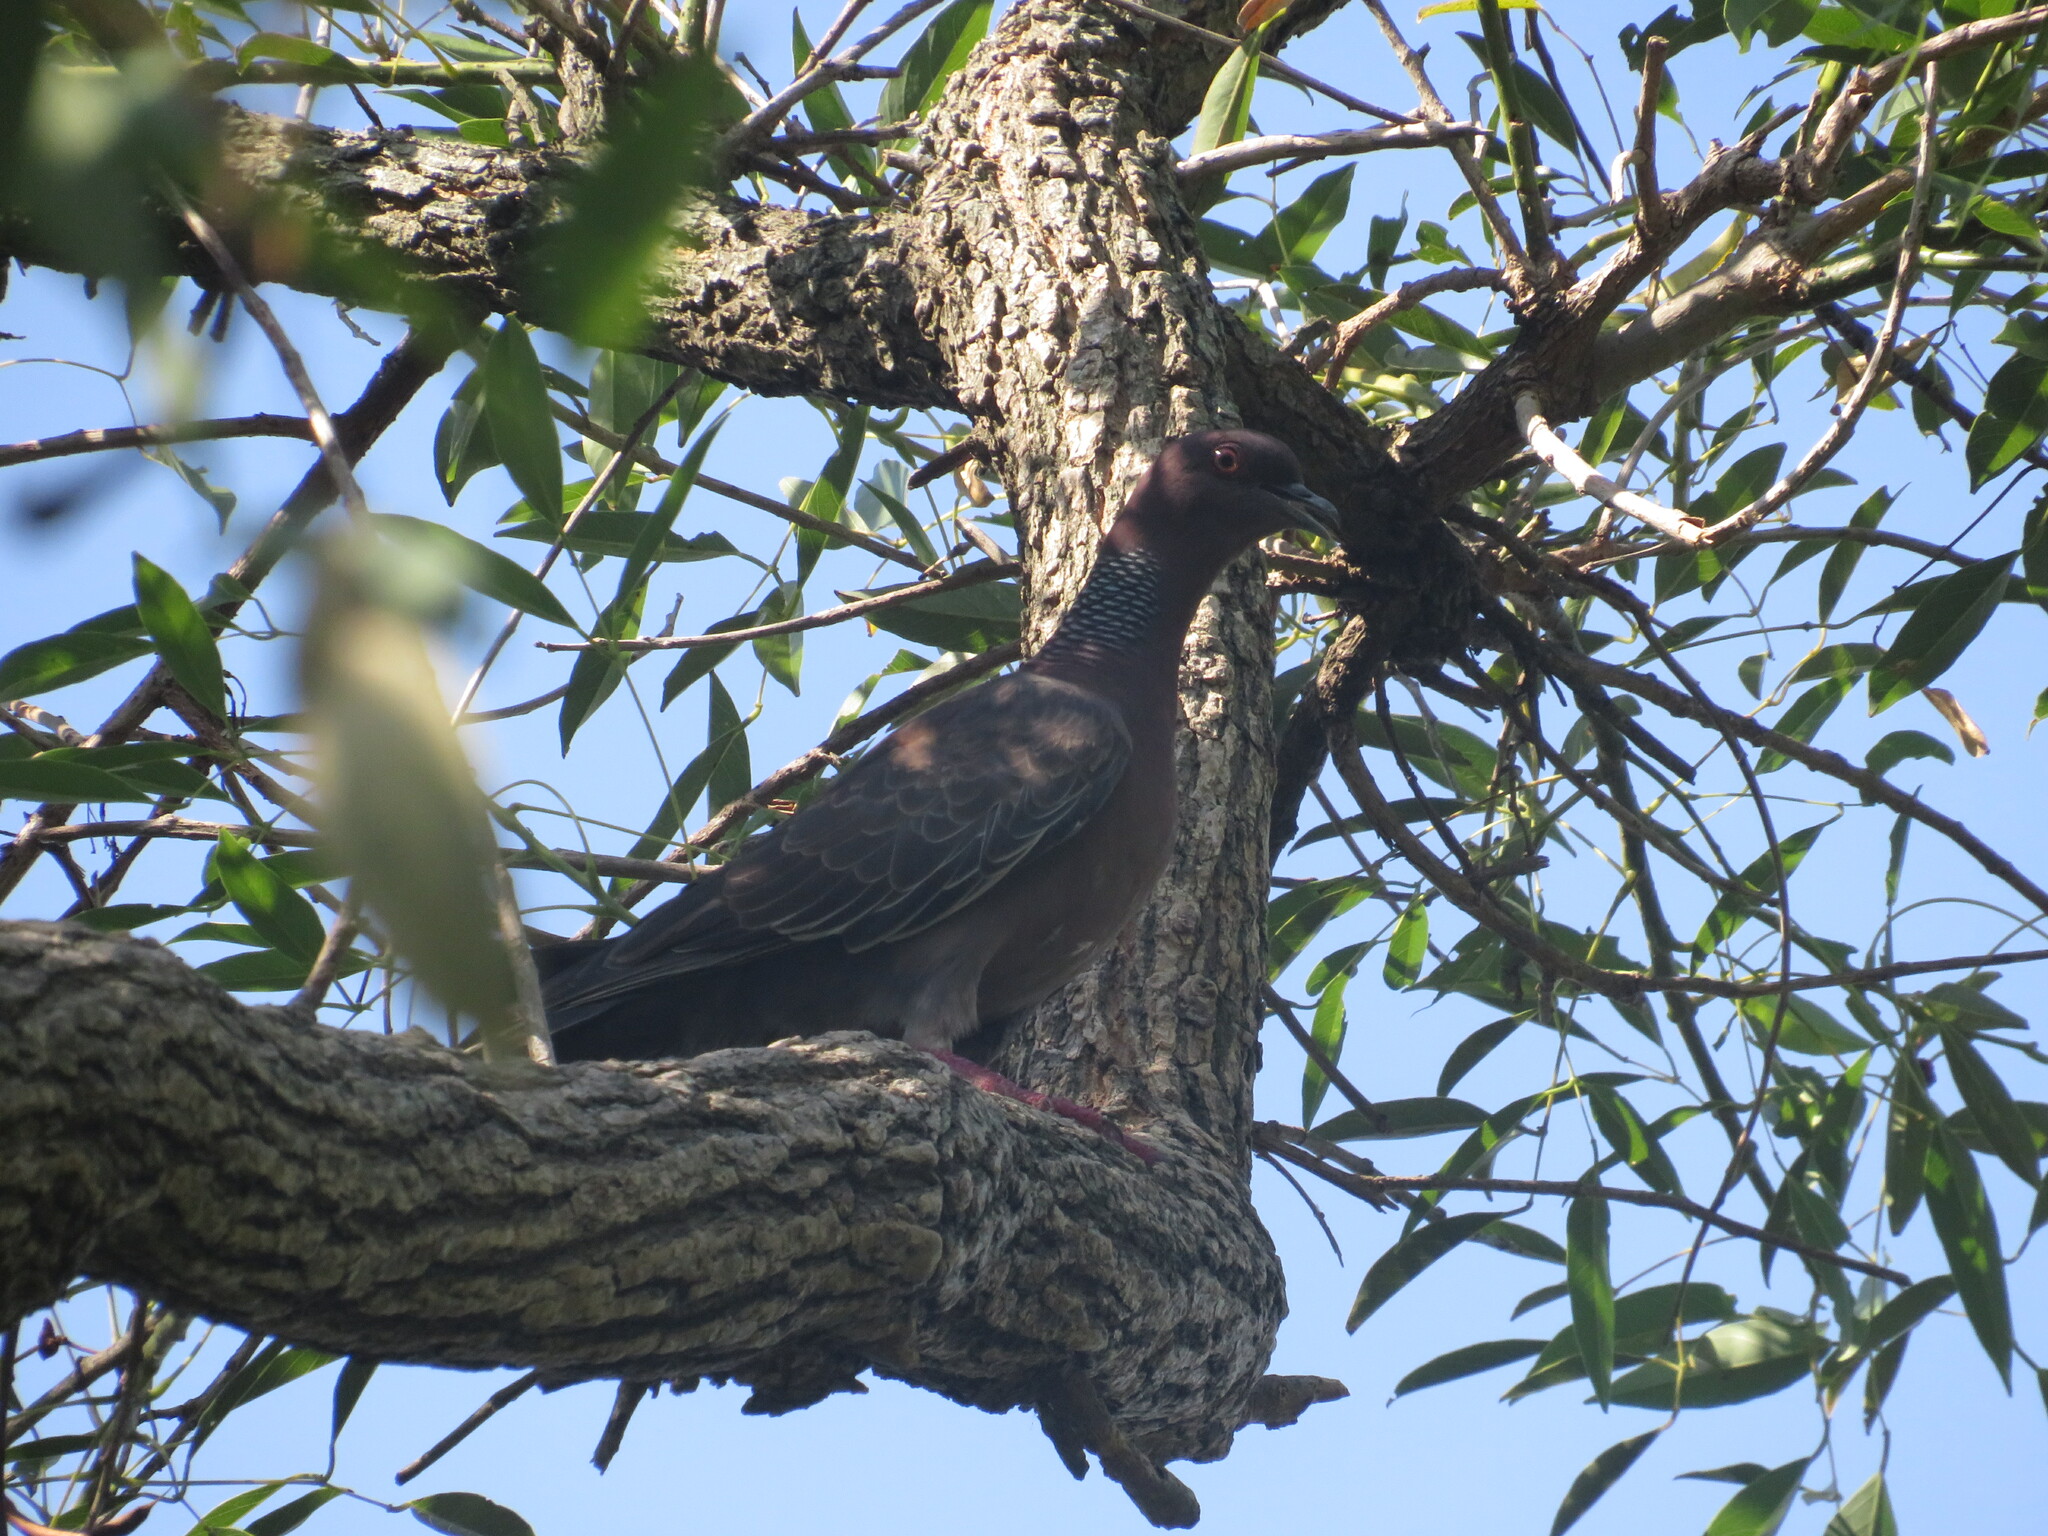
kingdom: Animalia
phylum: Chordata
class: Aves
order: Columbiformes
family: Columbidae
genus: Patagioenas
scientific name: Patagioenas picazuro
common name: Picazuro pigeon
